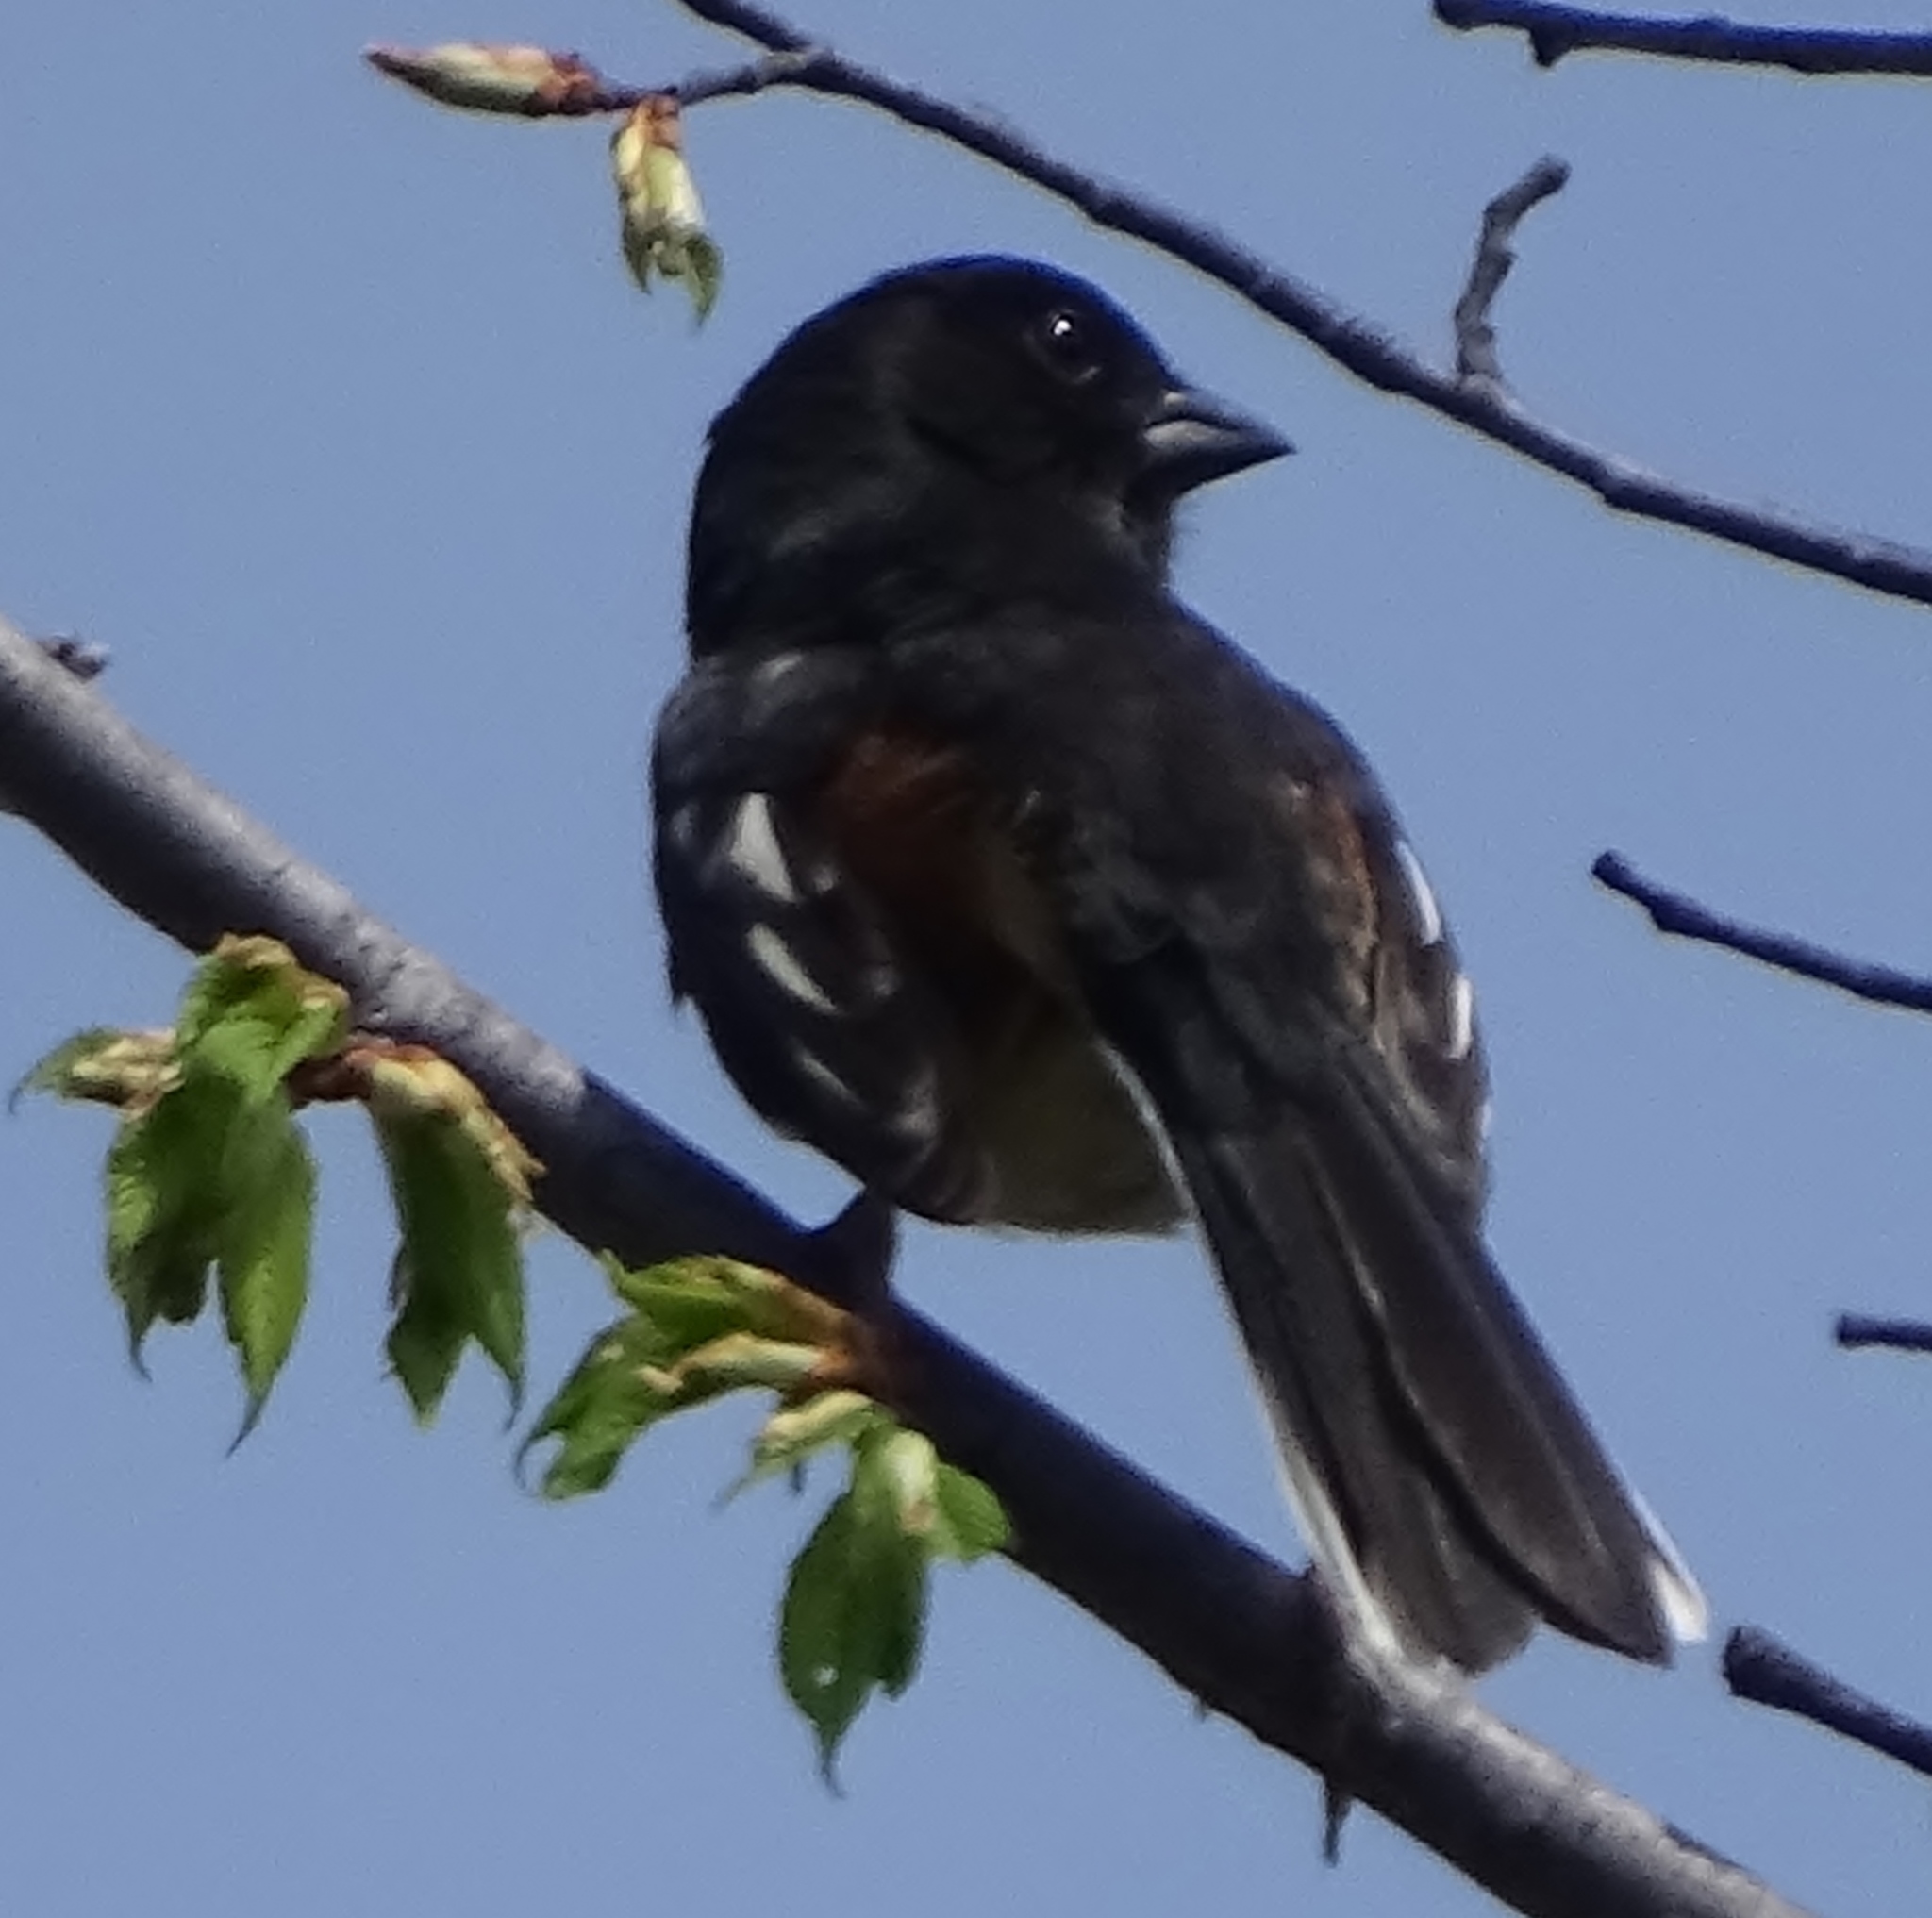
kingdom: Animalia
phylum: Chordata
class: Aves
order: Passeriformes
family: Passerellidae
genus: Pipilo
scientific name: Pipilo erythrophthalmus
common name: Eastern towhee
